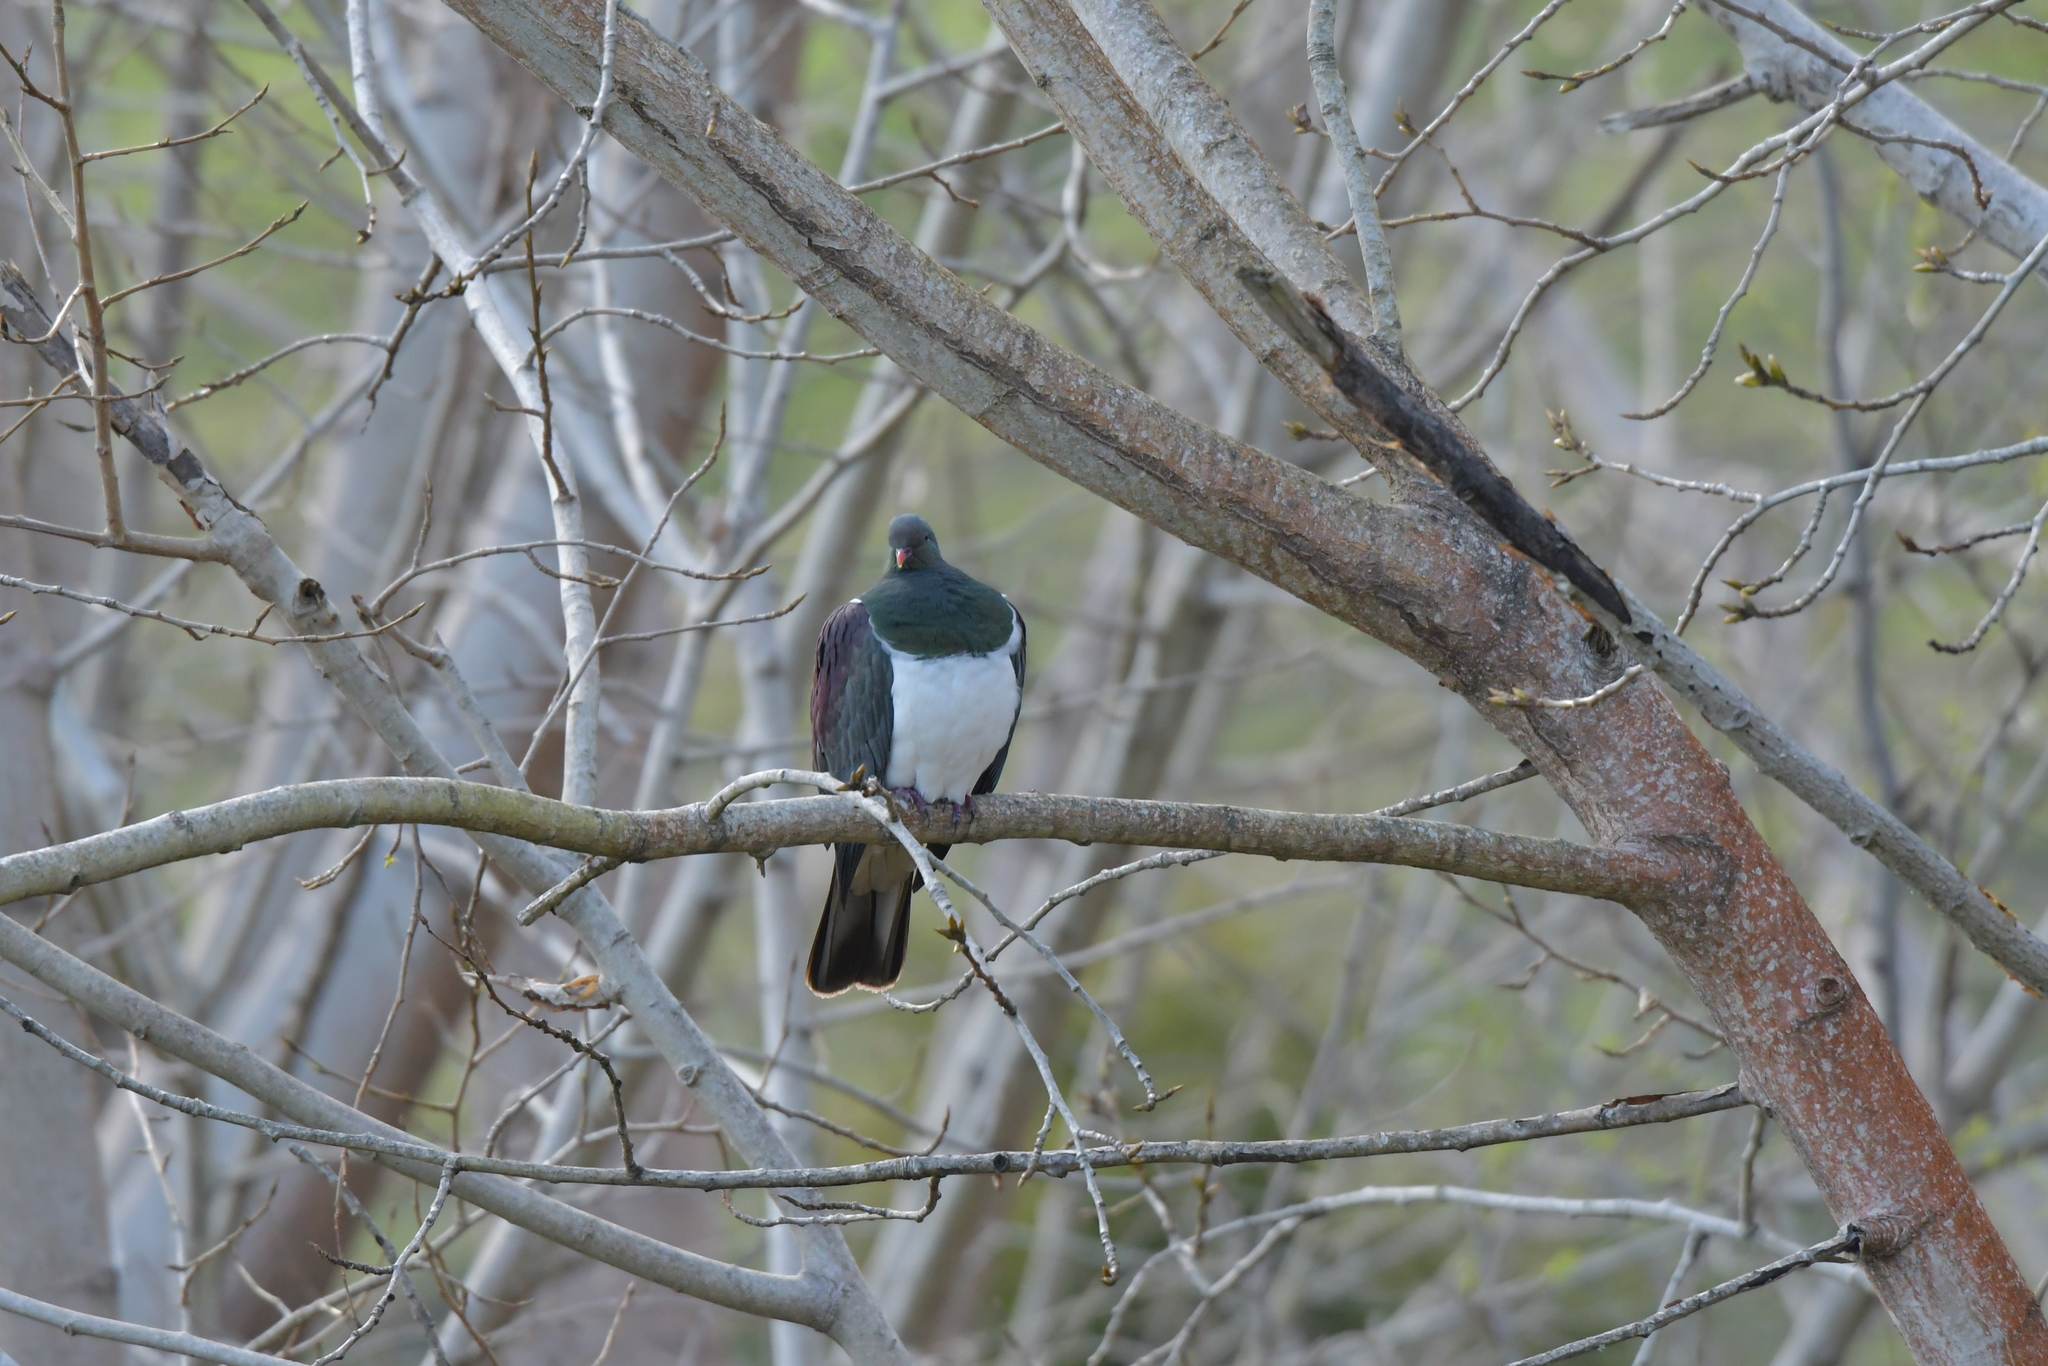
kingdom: Animalia
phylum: Chordata
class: Aves
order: Columbiformes
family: Columbidae
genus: Hemiphaga
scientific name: Hemiphaga novaeseelandiae
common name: New zealand pigeon
